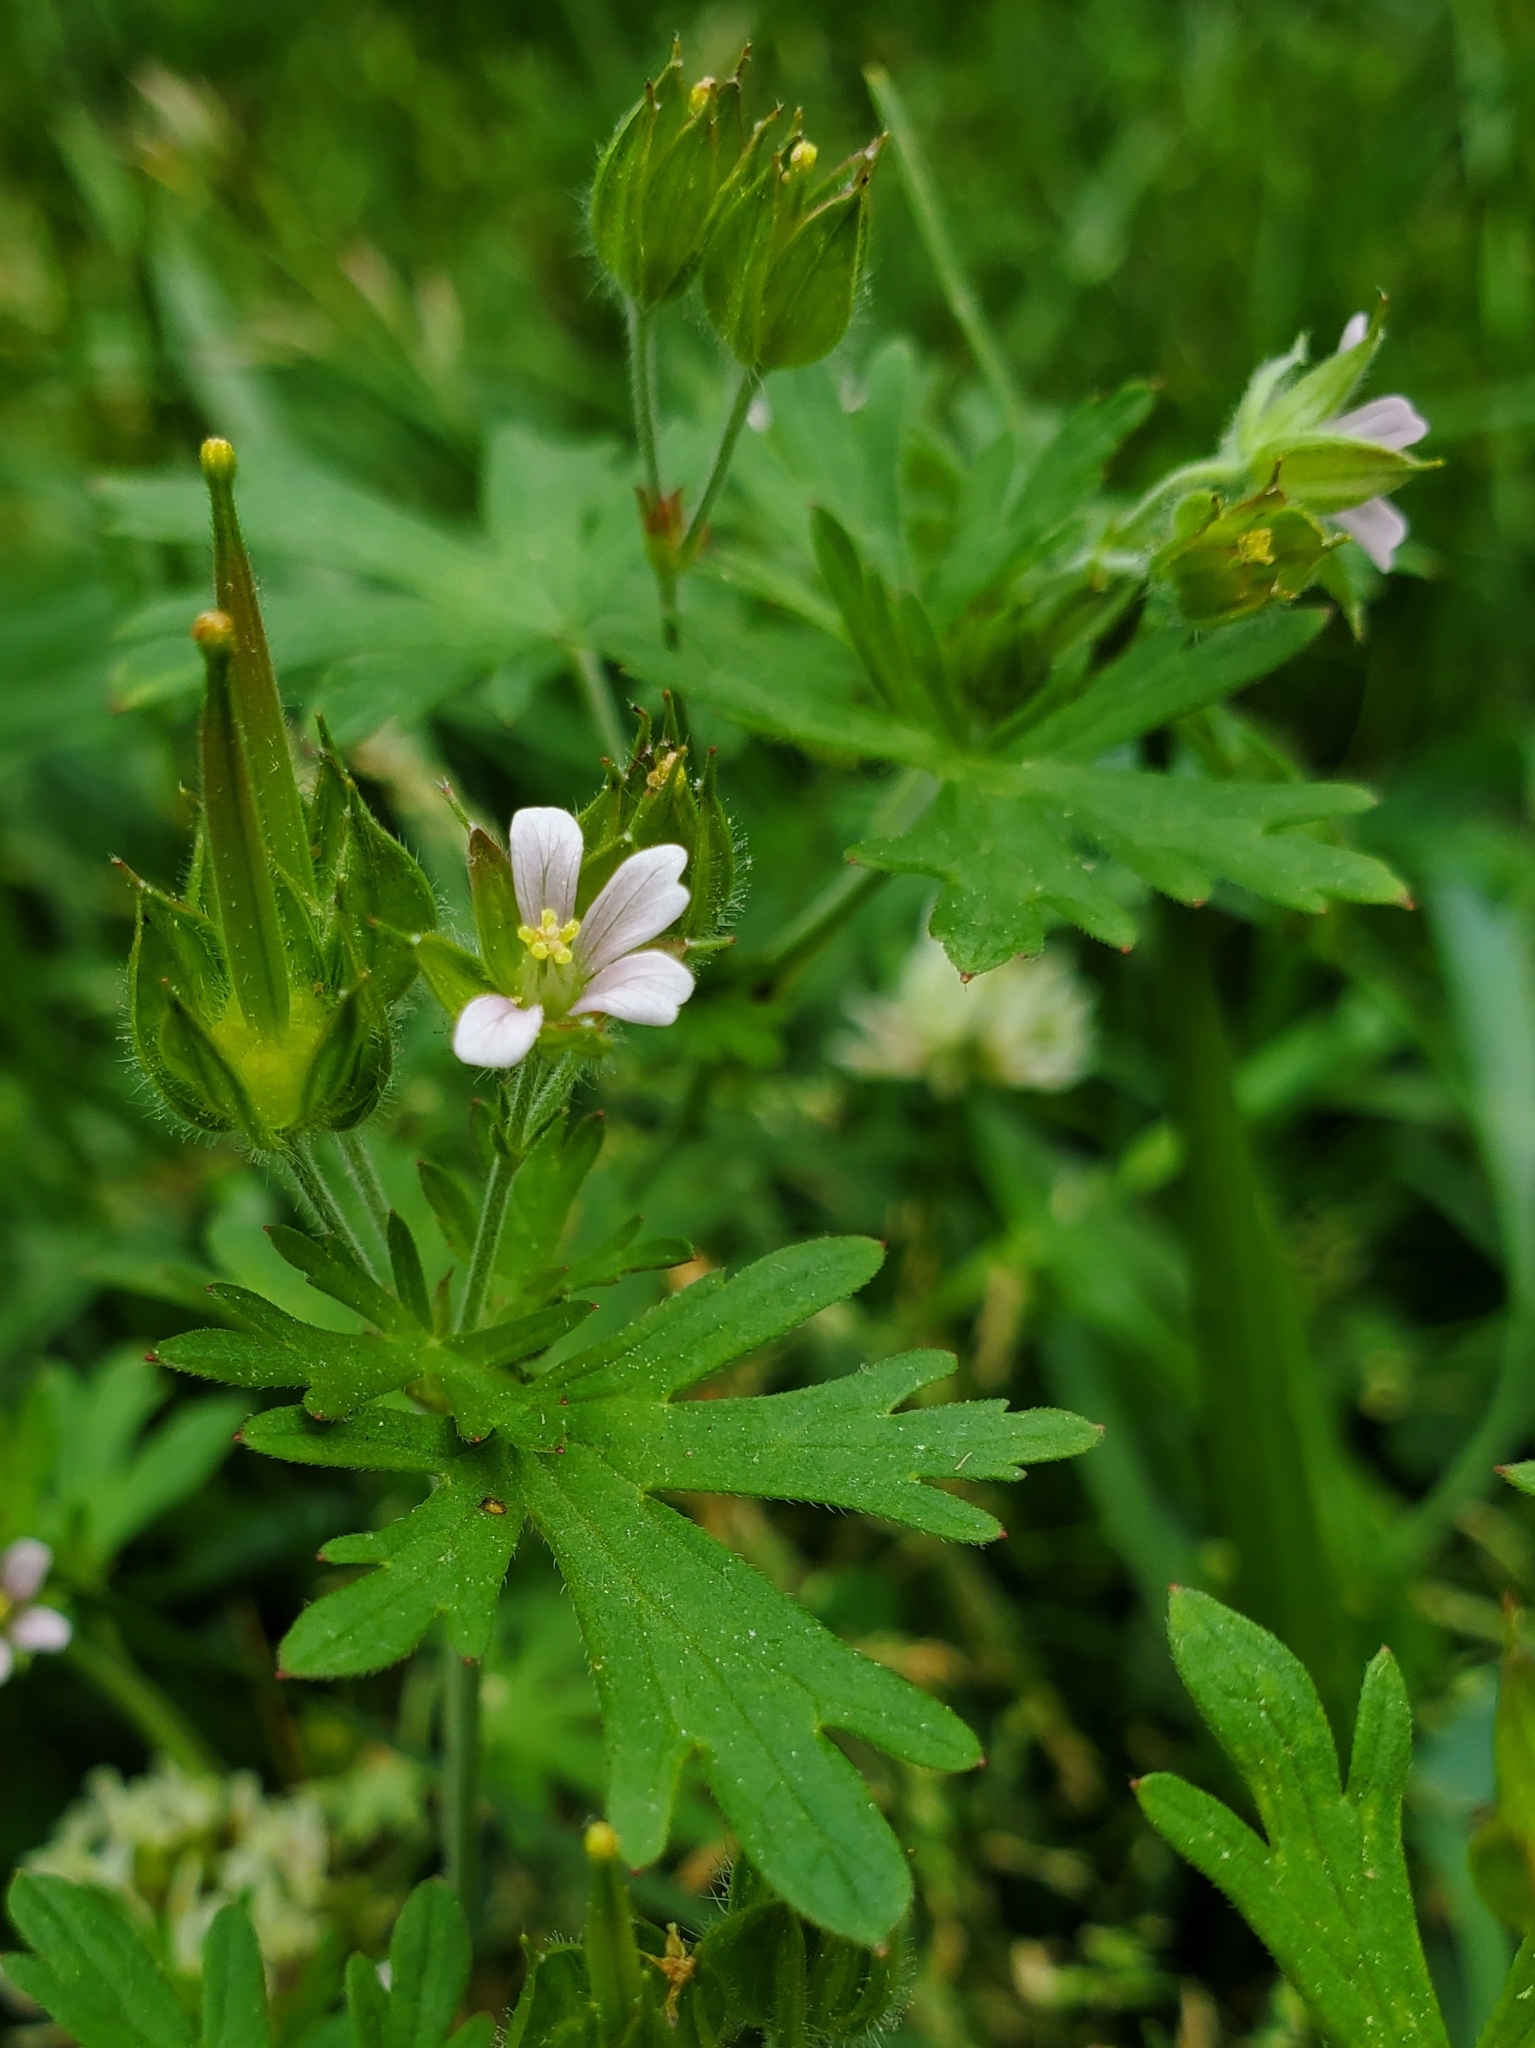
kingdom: Plantae
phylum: Tracheophyta
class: Magnoliopsida
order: Geraniales
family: Geraniaceae
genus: Geranium
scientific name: Geranium carolinianum
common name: Carolina crane's-bill
